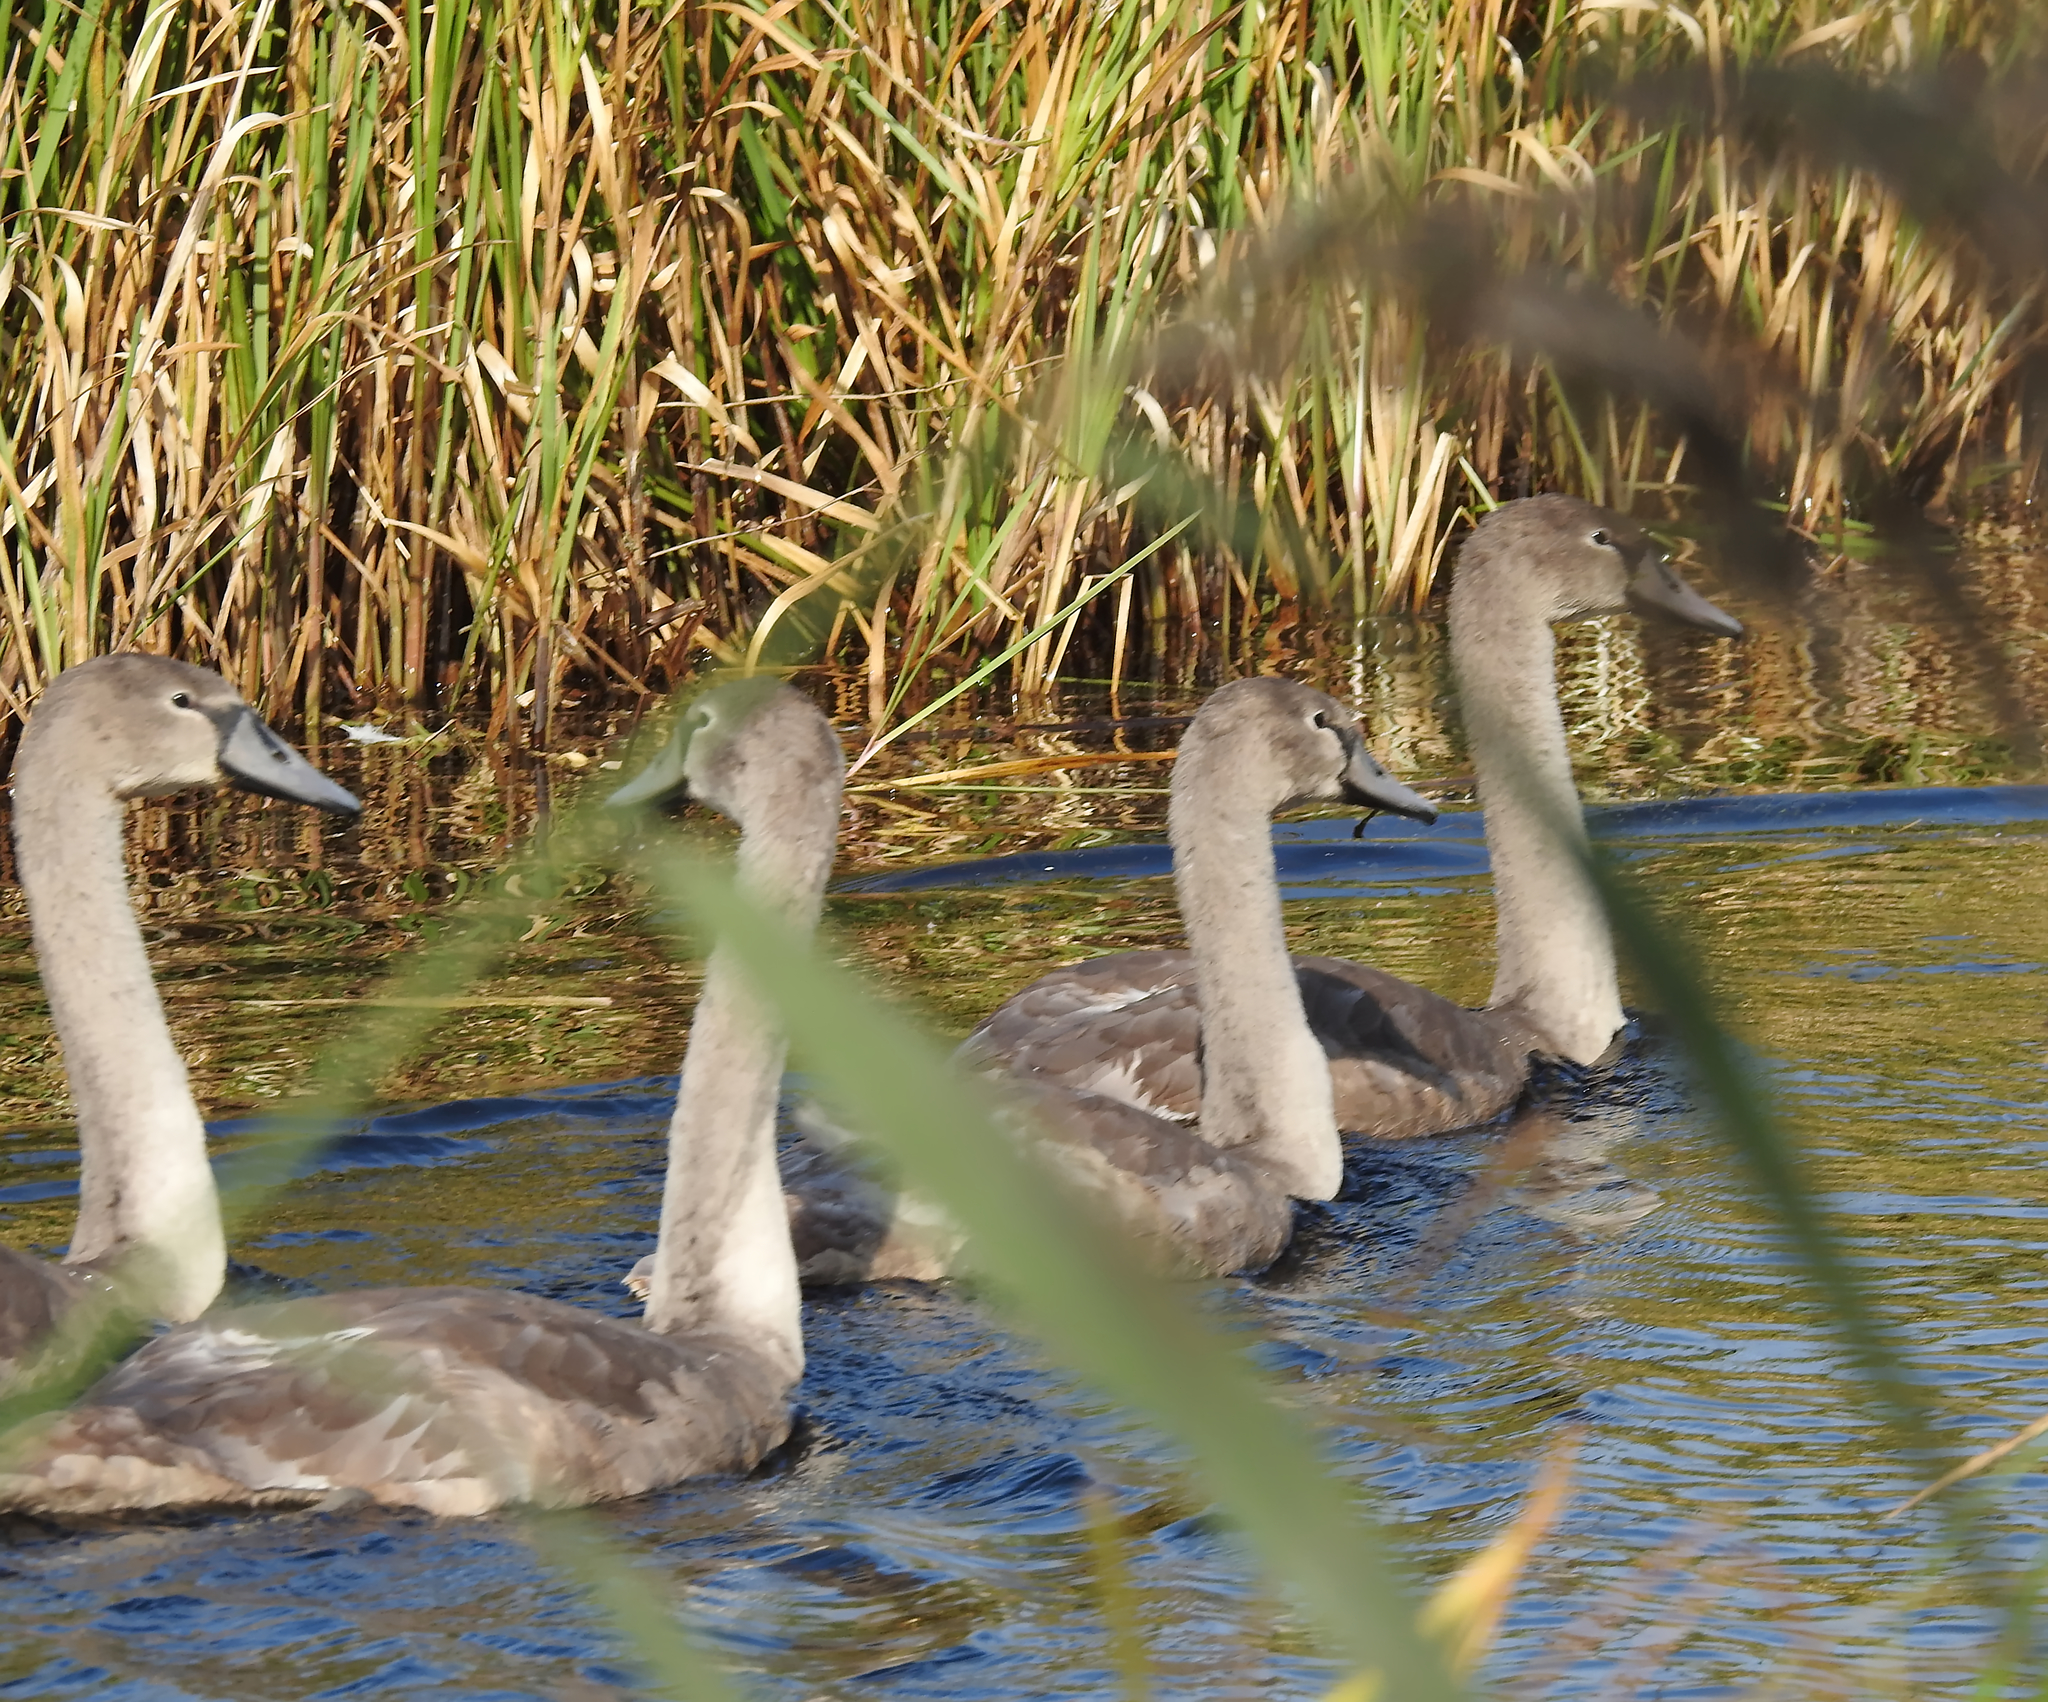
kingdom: Animalia
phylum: Chordata
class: Aves
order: Anseriformes
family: Anatidae
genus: Cygnus
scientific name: Cygnus olor
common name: Mute swan
